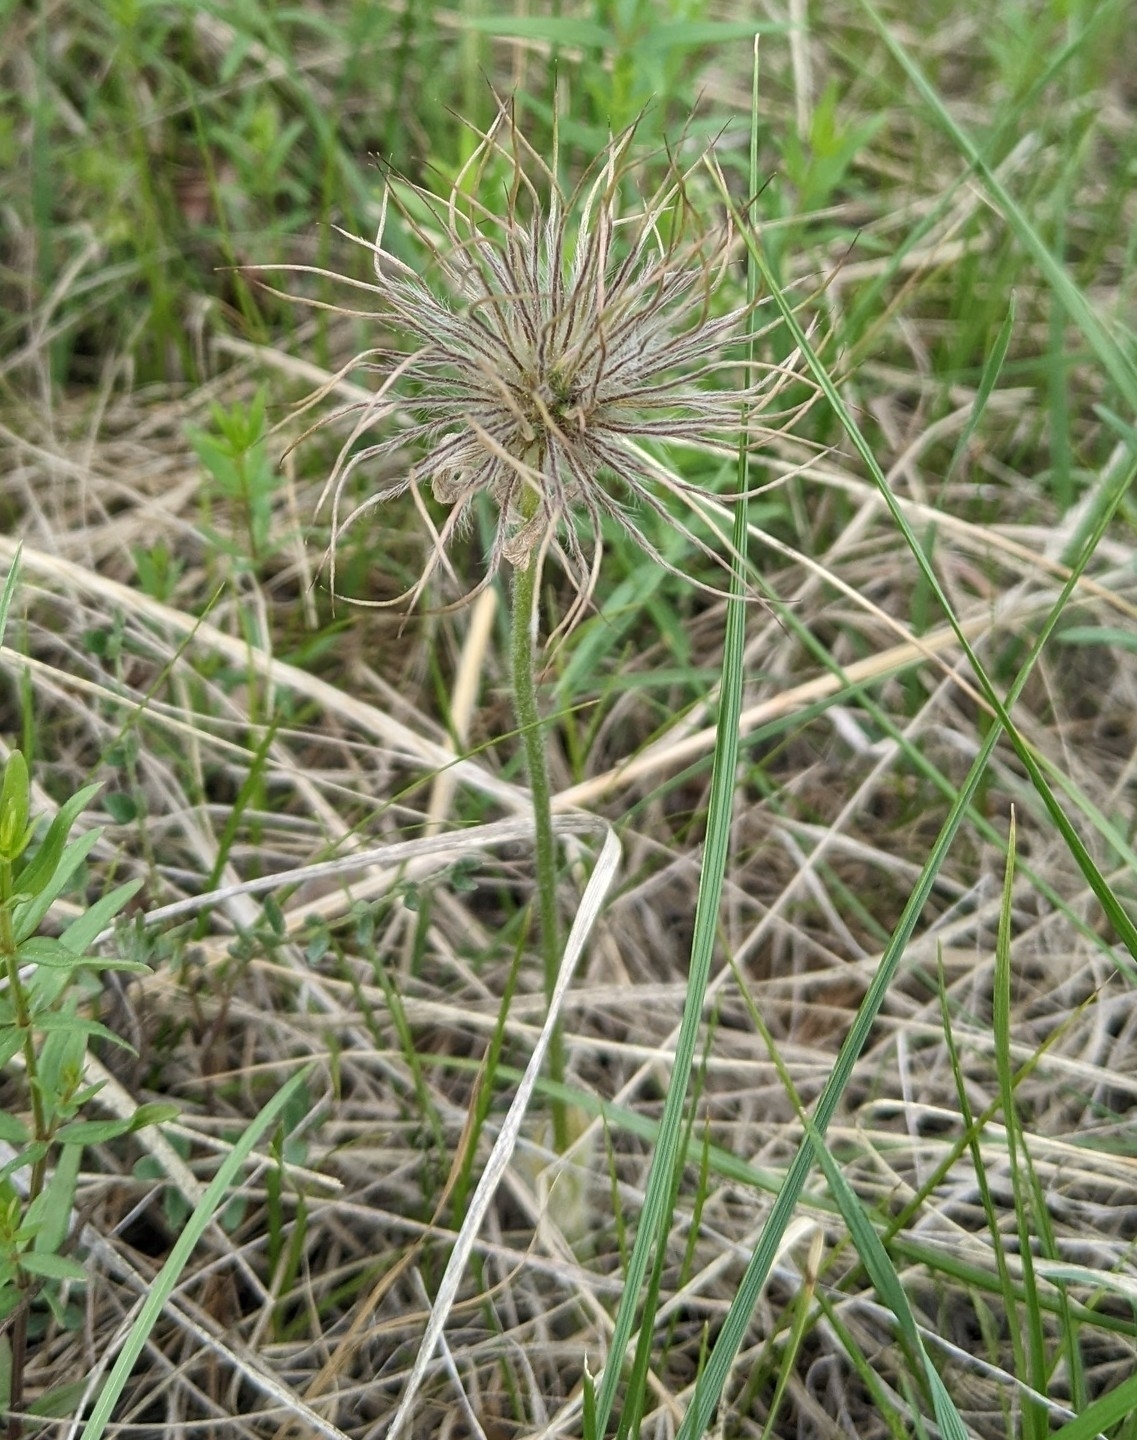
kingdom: Plantae
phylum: Tracheophyta
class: Magnoliopsida
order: Ranunculales
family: Ranunculaceae
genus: Pulsatilla
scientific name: Pulsatilla nuttalliana
